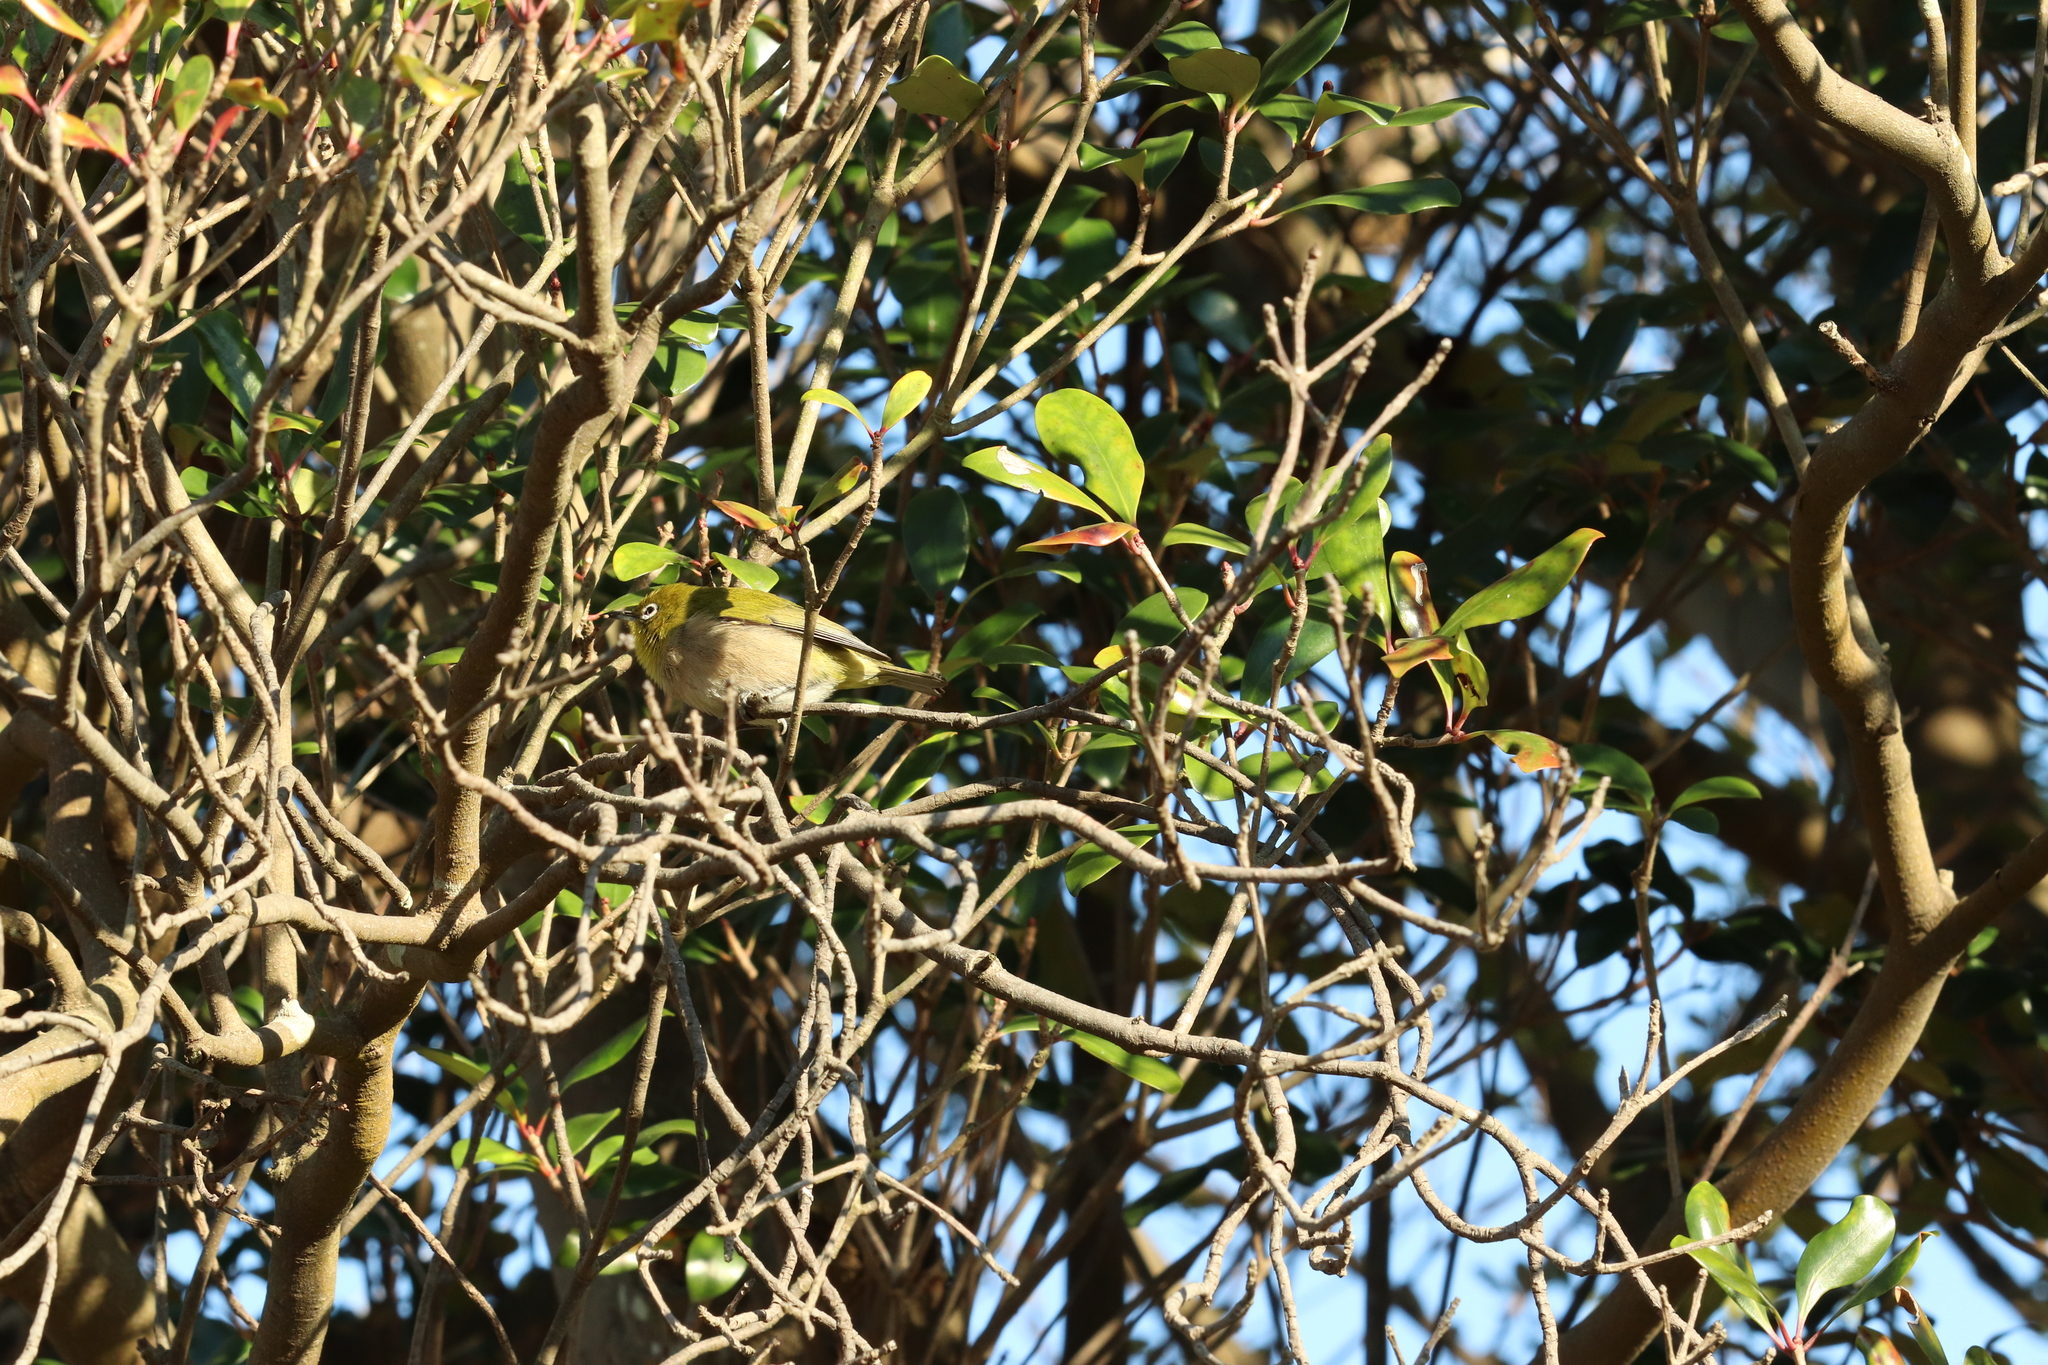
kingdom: Animalia
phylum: Chordata
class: Aves
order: Passeriformes
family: Zosteropidae
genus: Zosterops
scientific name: Zosterops japonicus
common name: Japanese white-eye
